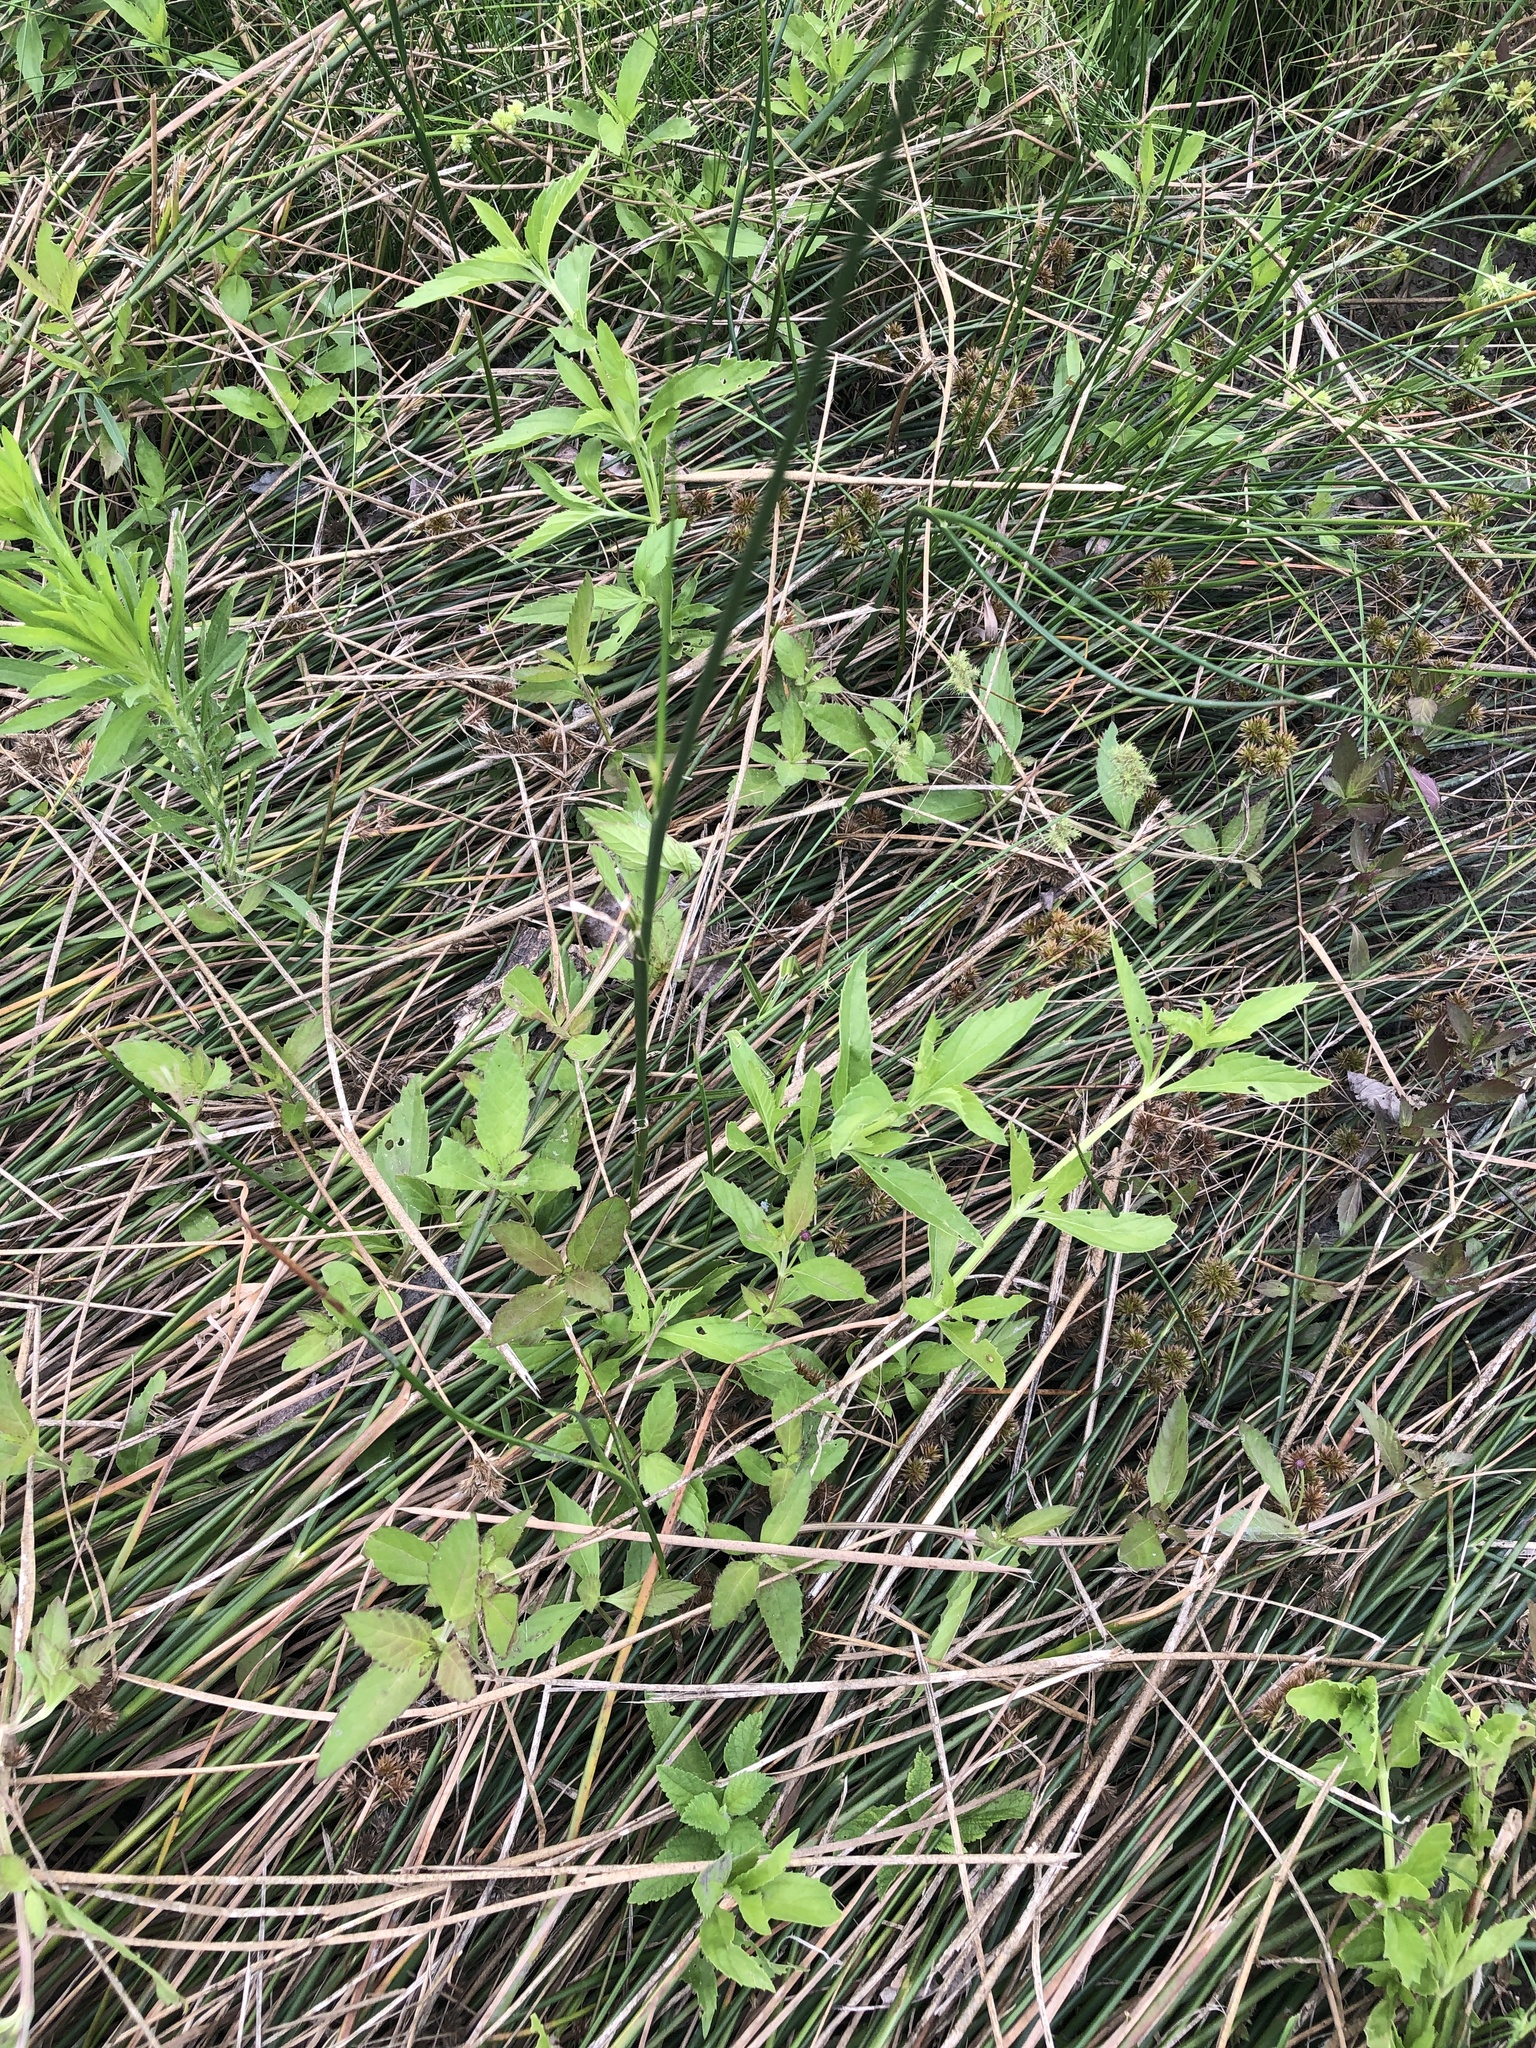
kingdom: Plantae
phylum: Tracheophyta
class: Magnoliopsida
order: Lamiales
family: Verbenaceae
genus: Phyla
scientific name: Phyla lanceolata
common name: Northern fogfruit
